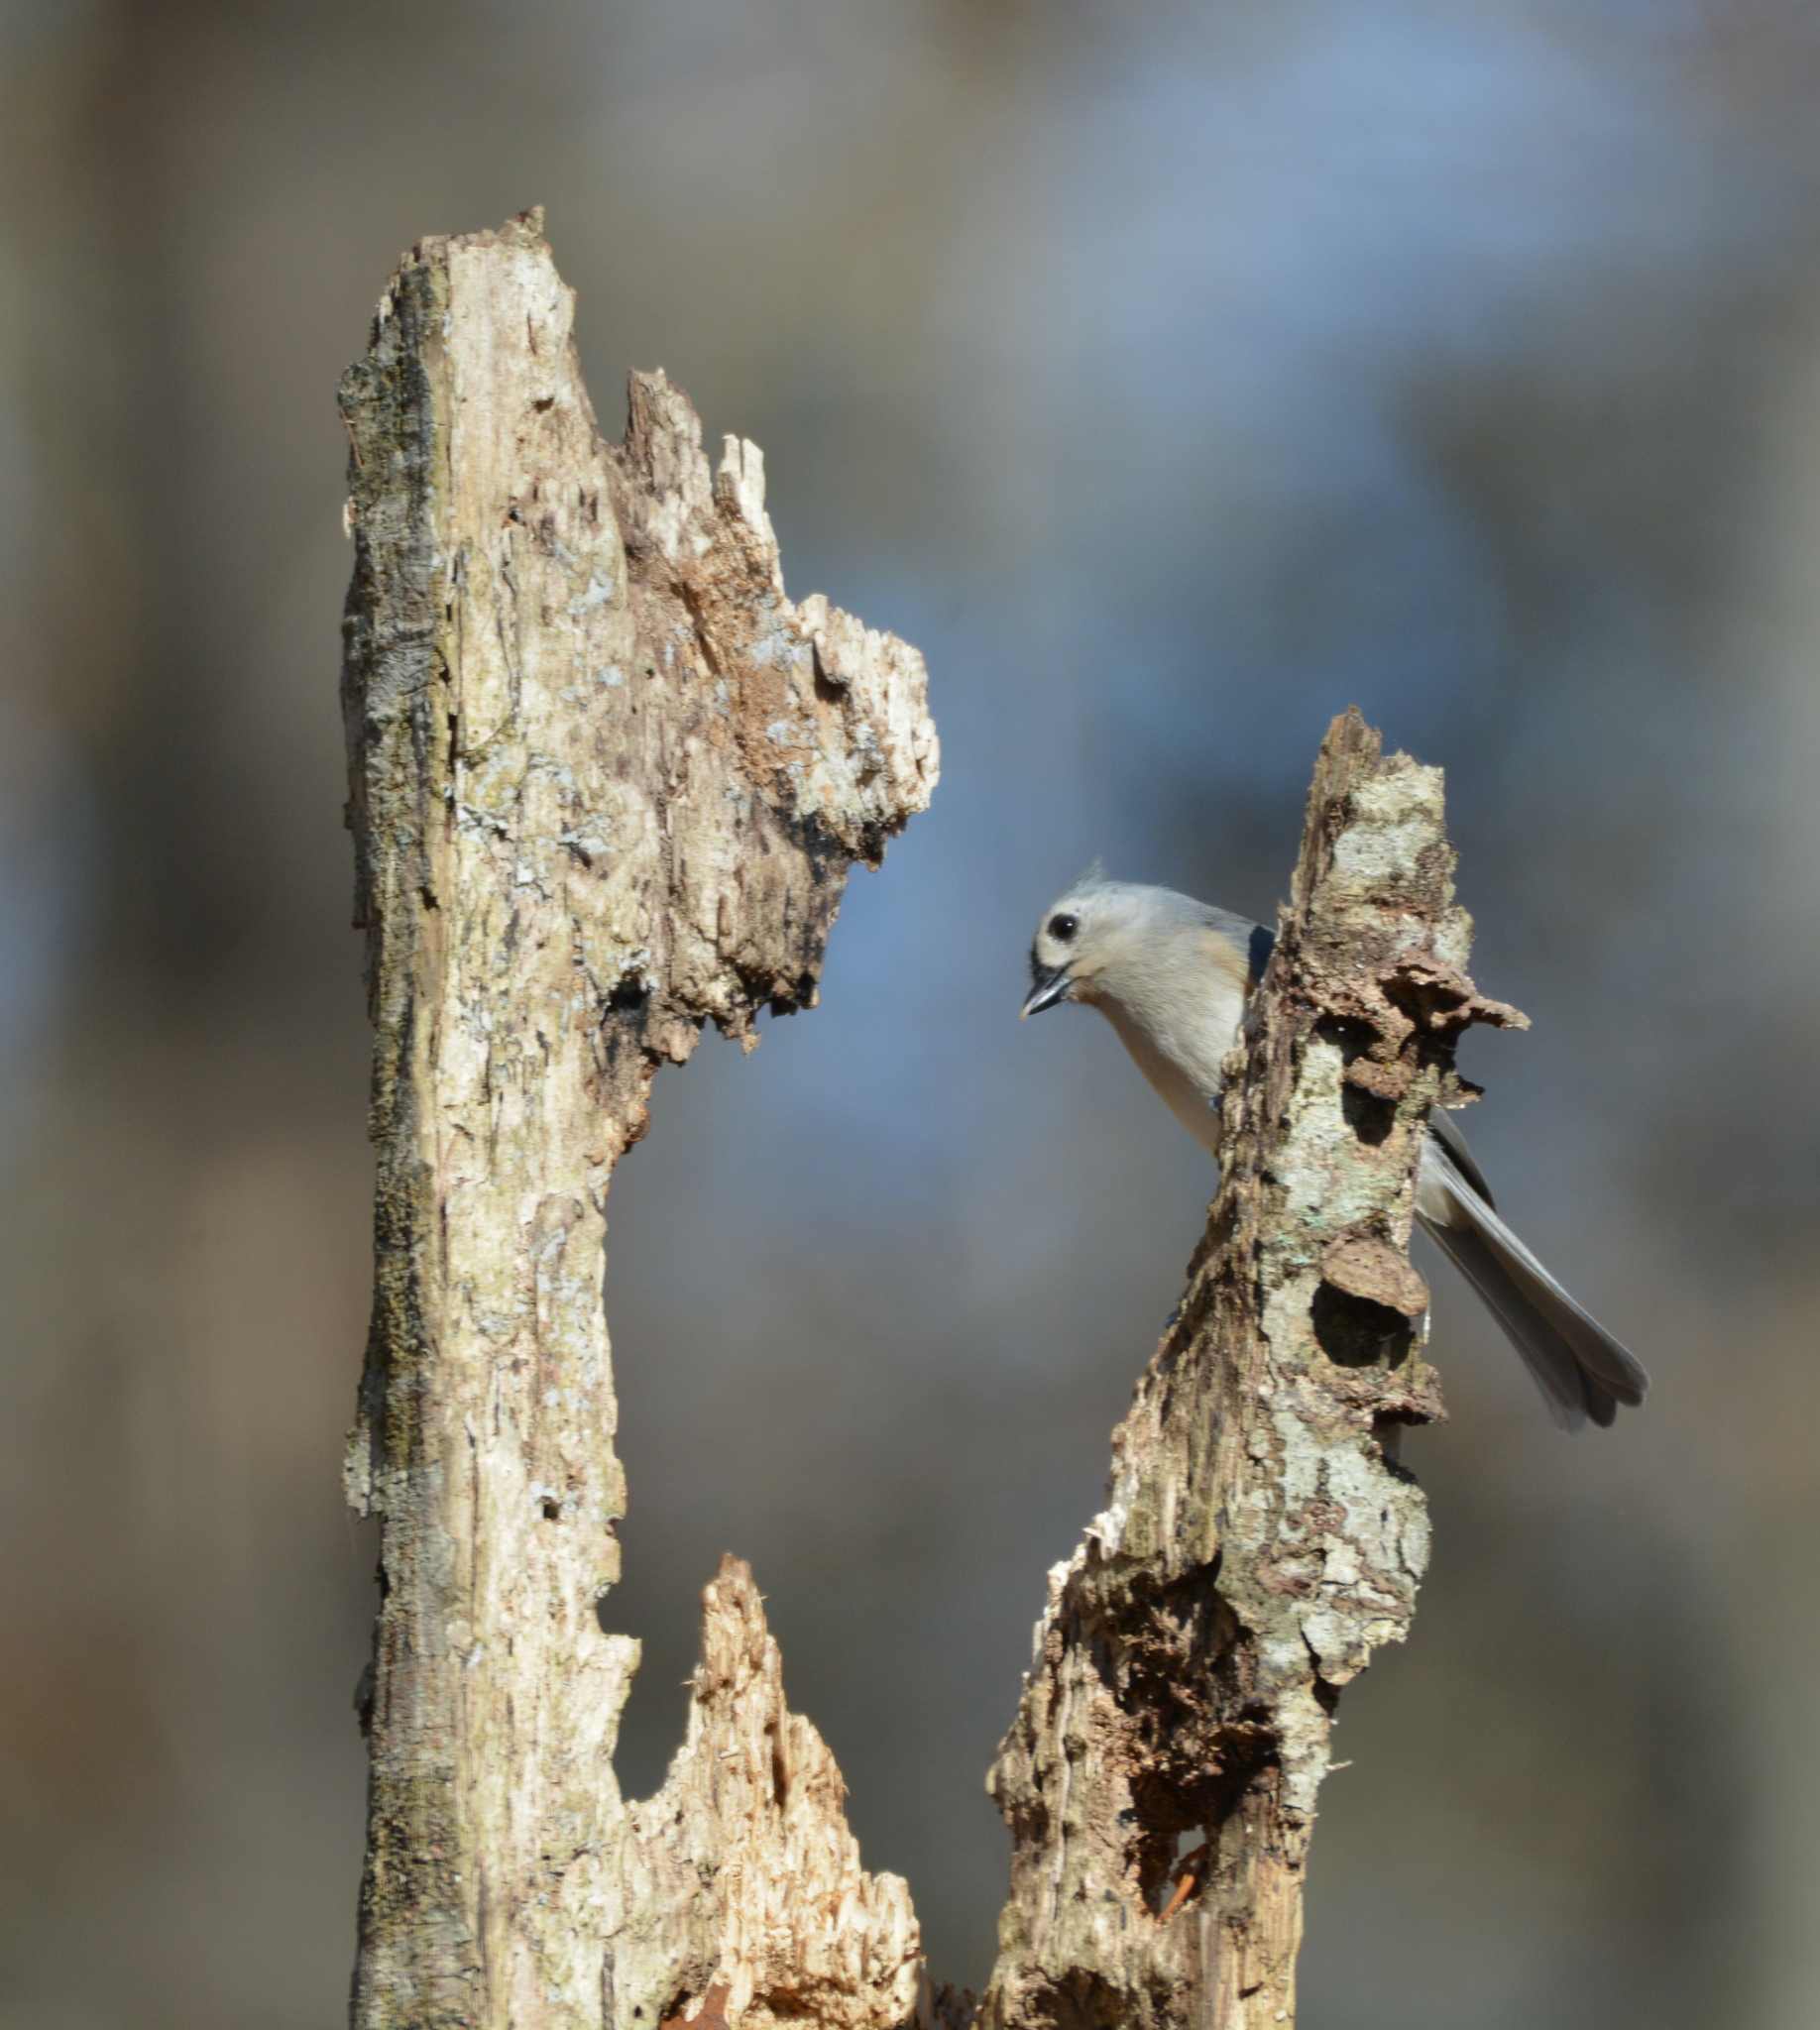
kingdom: Animalia
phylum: Chordata
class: Aves
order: Passeriformes
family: Paridae
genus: Baeolophus
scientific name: Baeolophus bicolor
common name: Tufted titmouse
